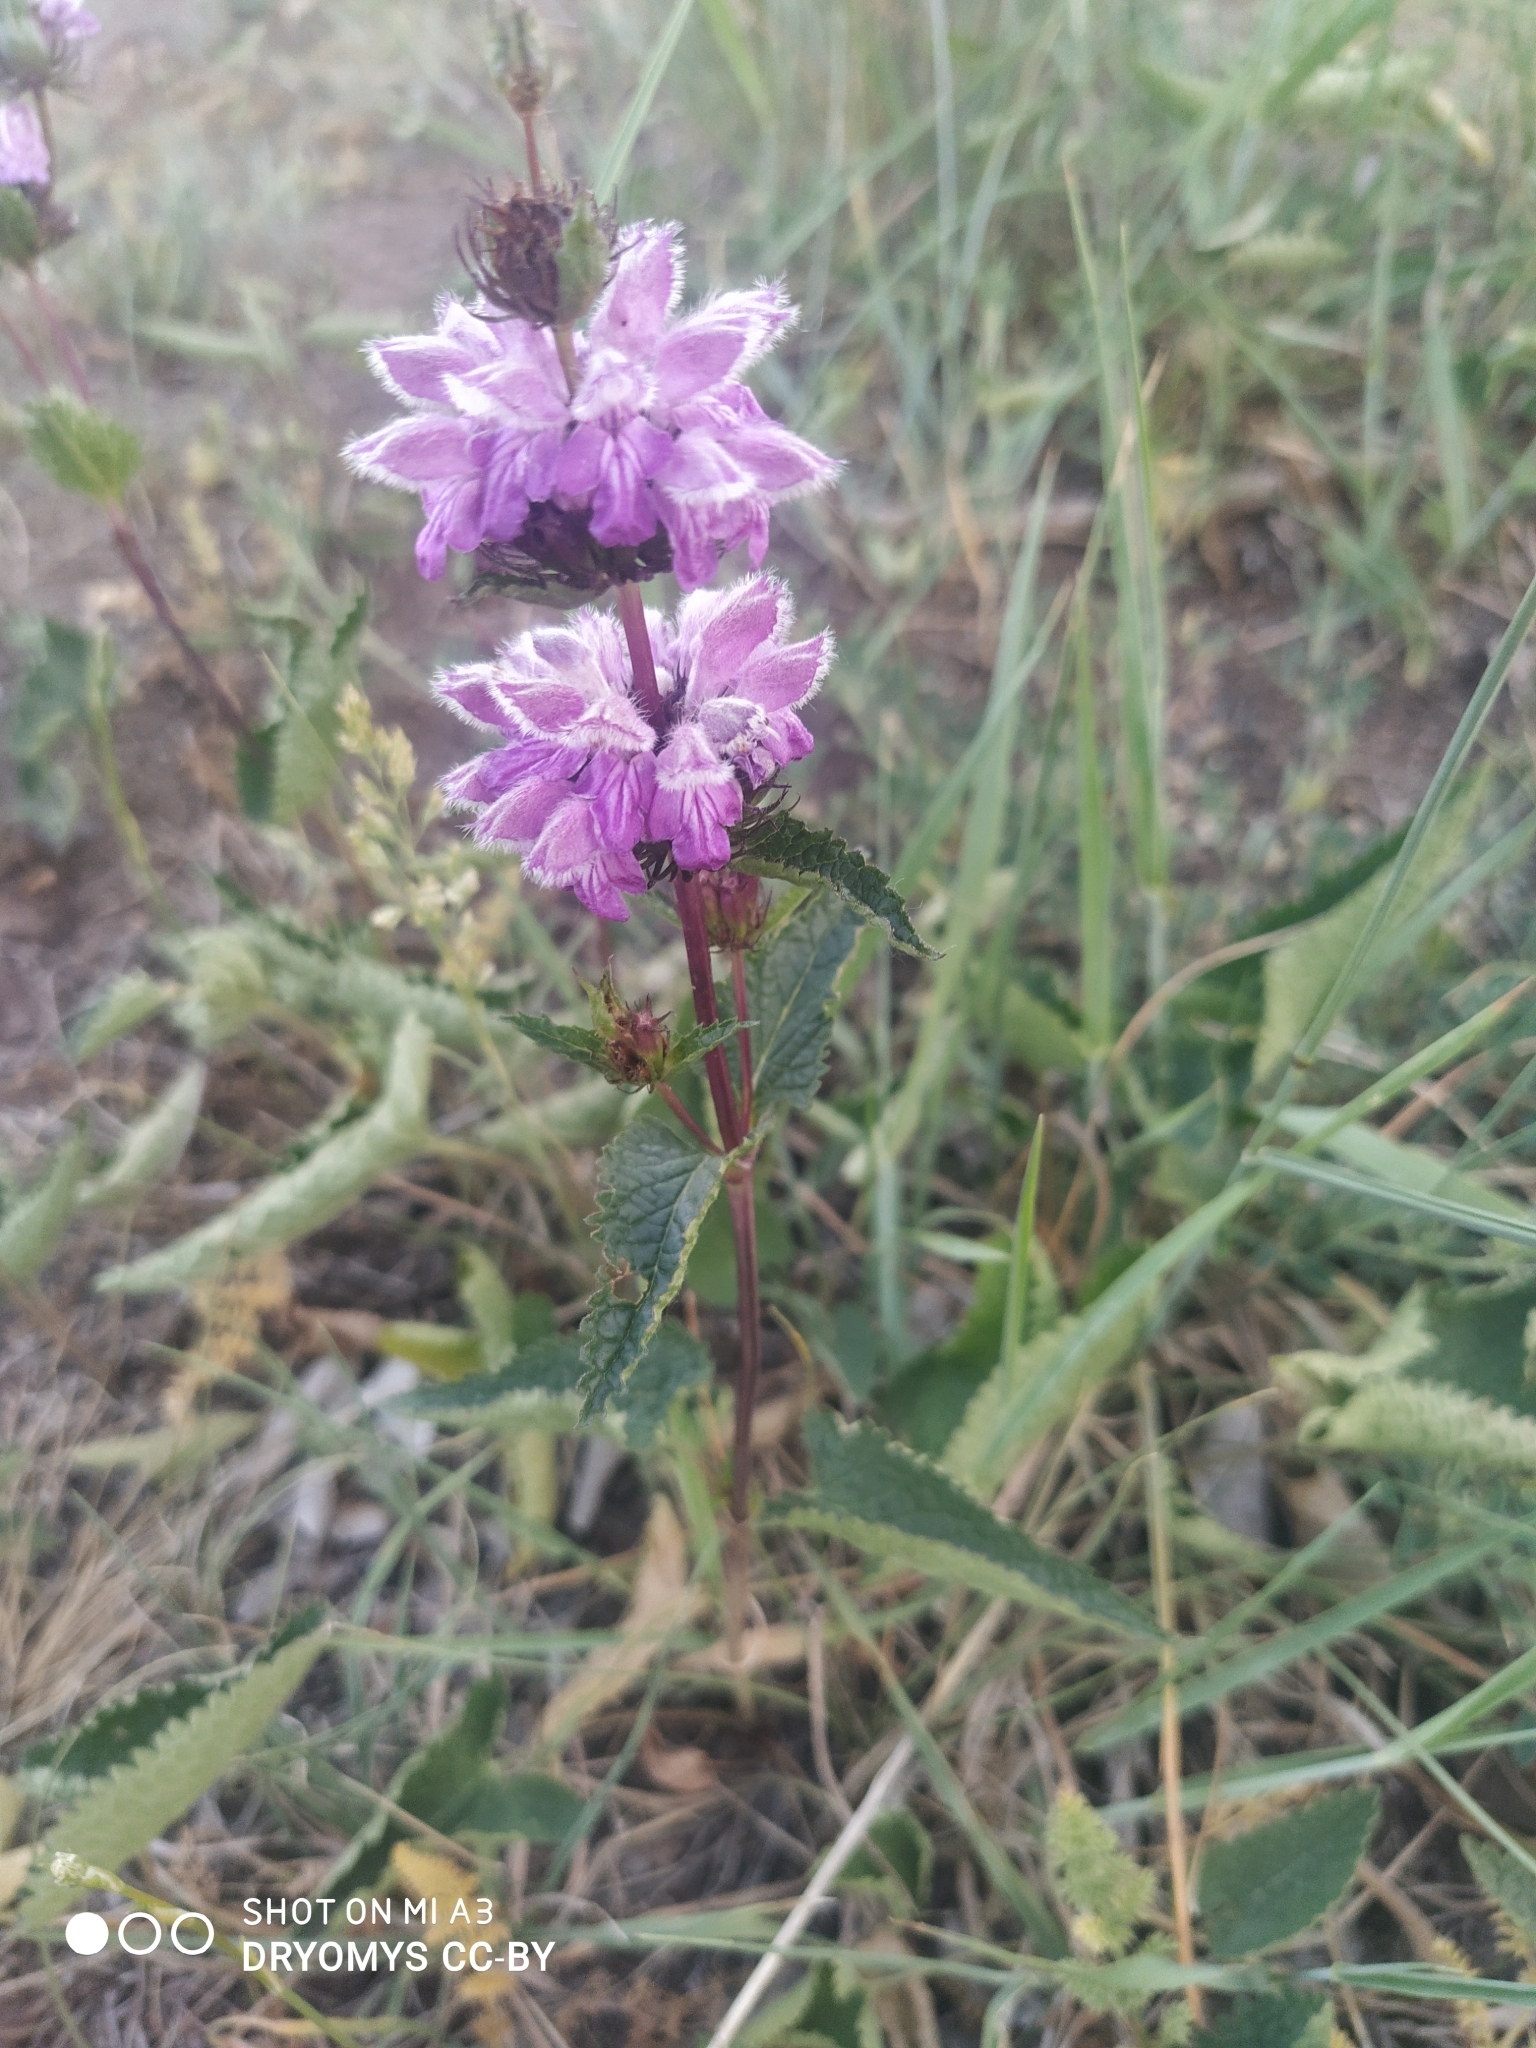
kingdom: Plantae
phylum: Tracheophyta
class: Magnoliopsida
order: Lamiales
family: Lamiaceae
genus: Phlomoides
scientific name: Phlomoides tuberosa
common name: Tuberous jerusalem sage
